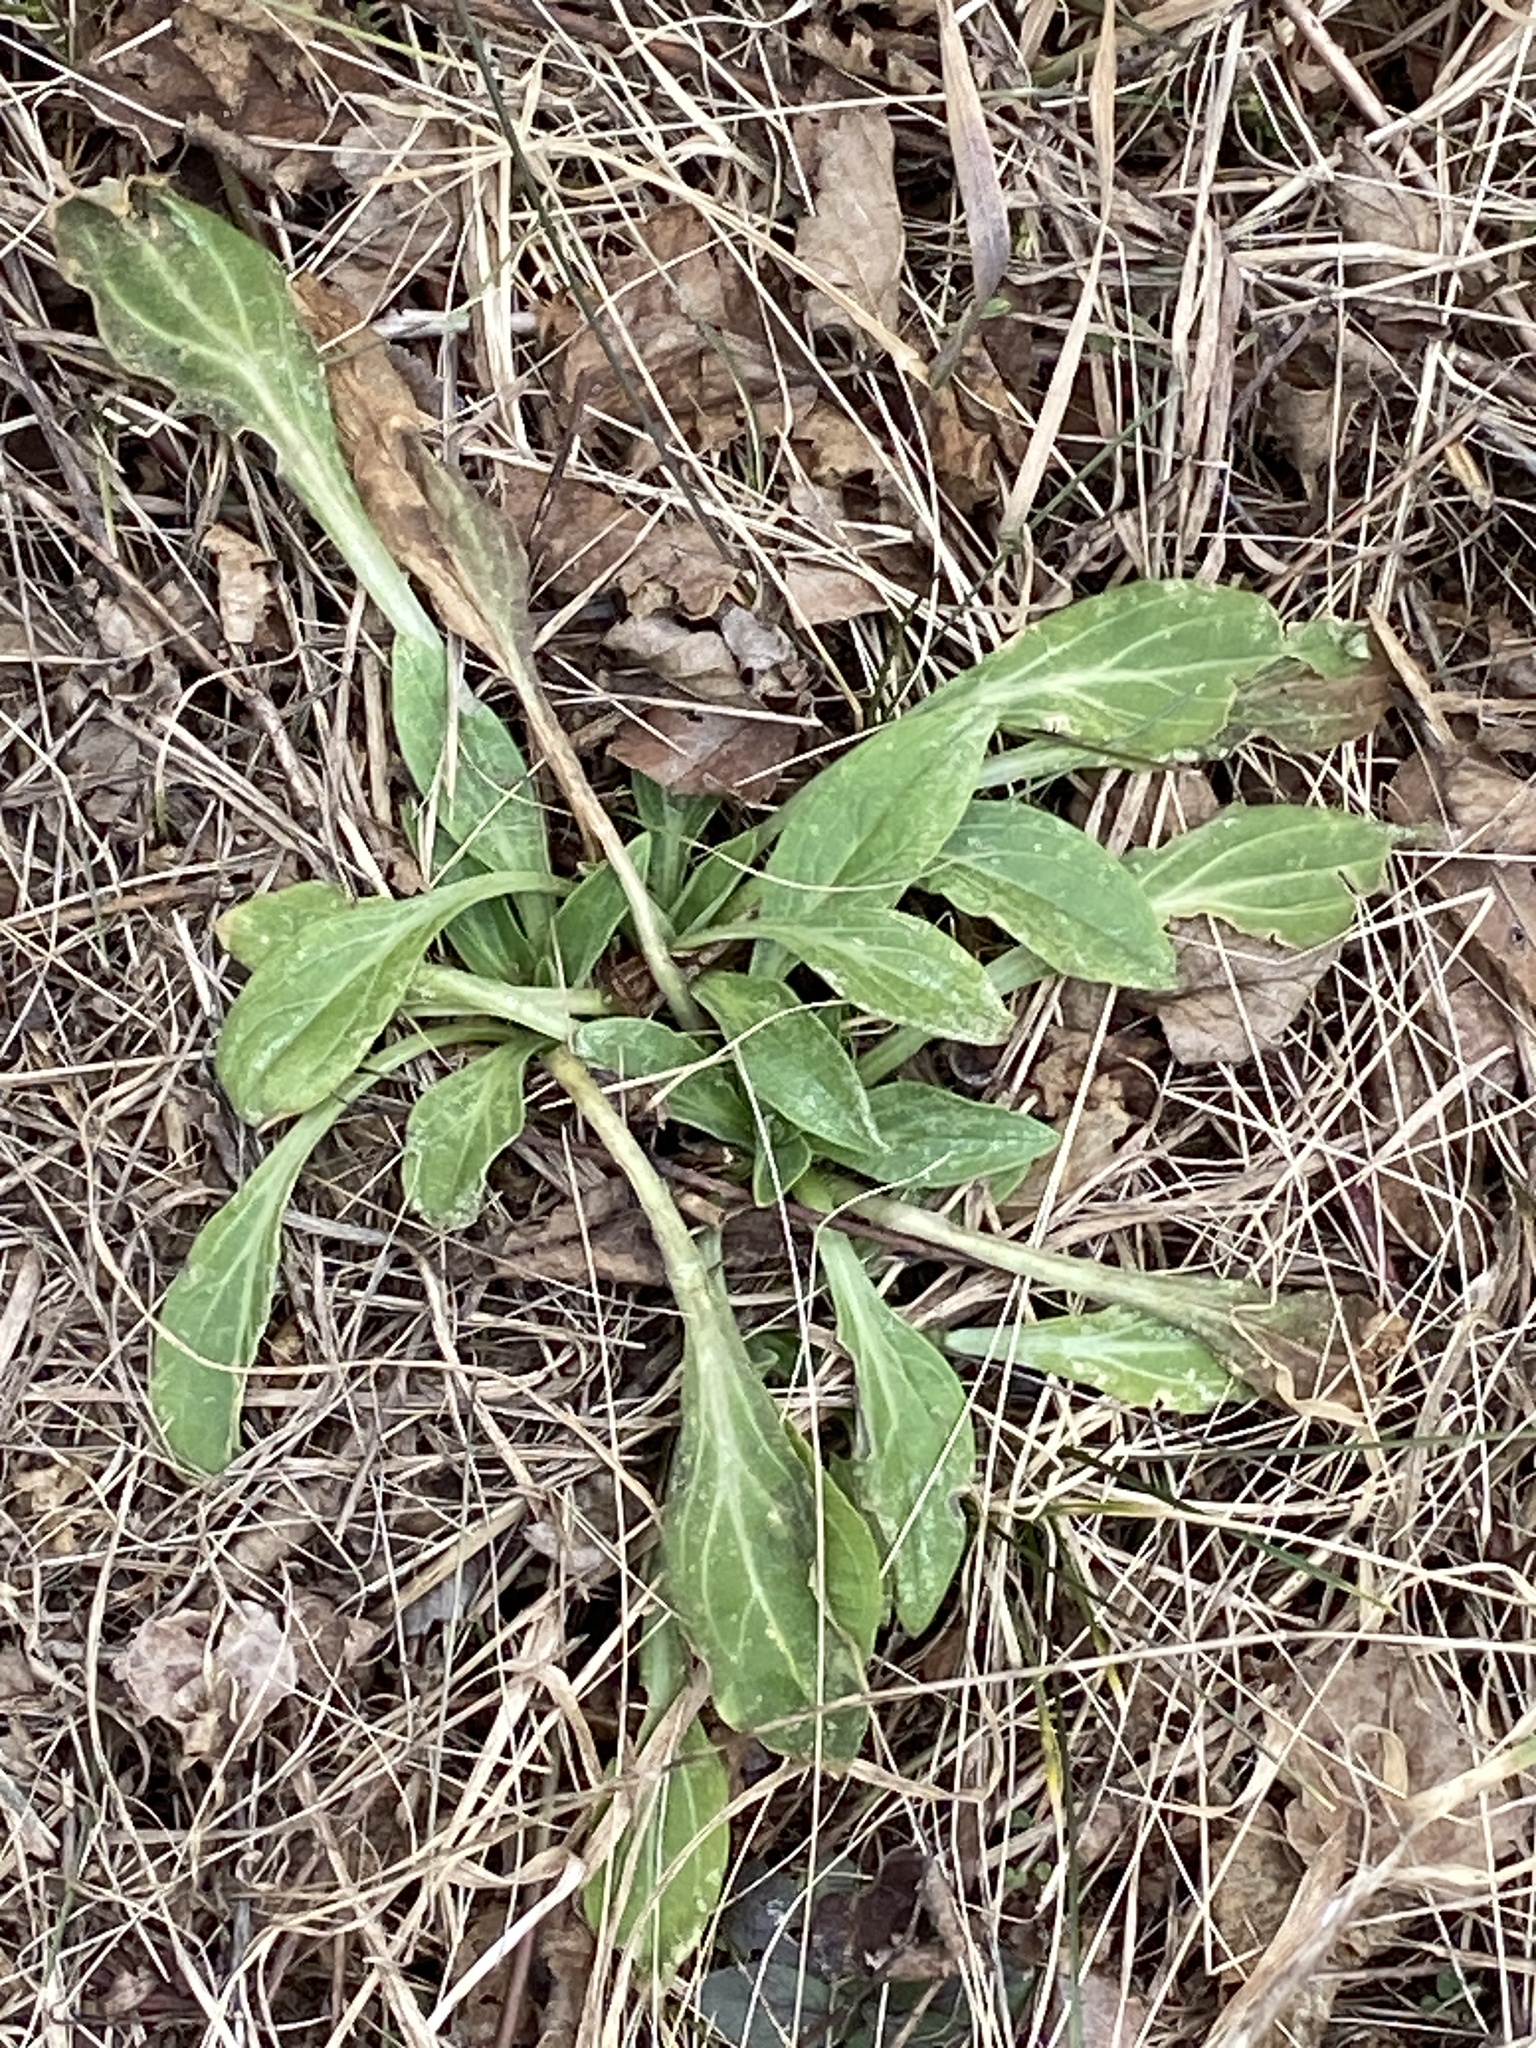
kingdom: Plantae
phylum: Tracheophyta
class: Magnoliopsida
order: Caryophyllales
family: Caryophyllaceae
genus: Silene
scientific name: Silene latifolia
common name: White campion
